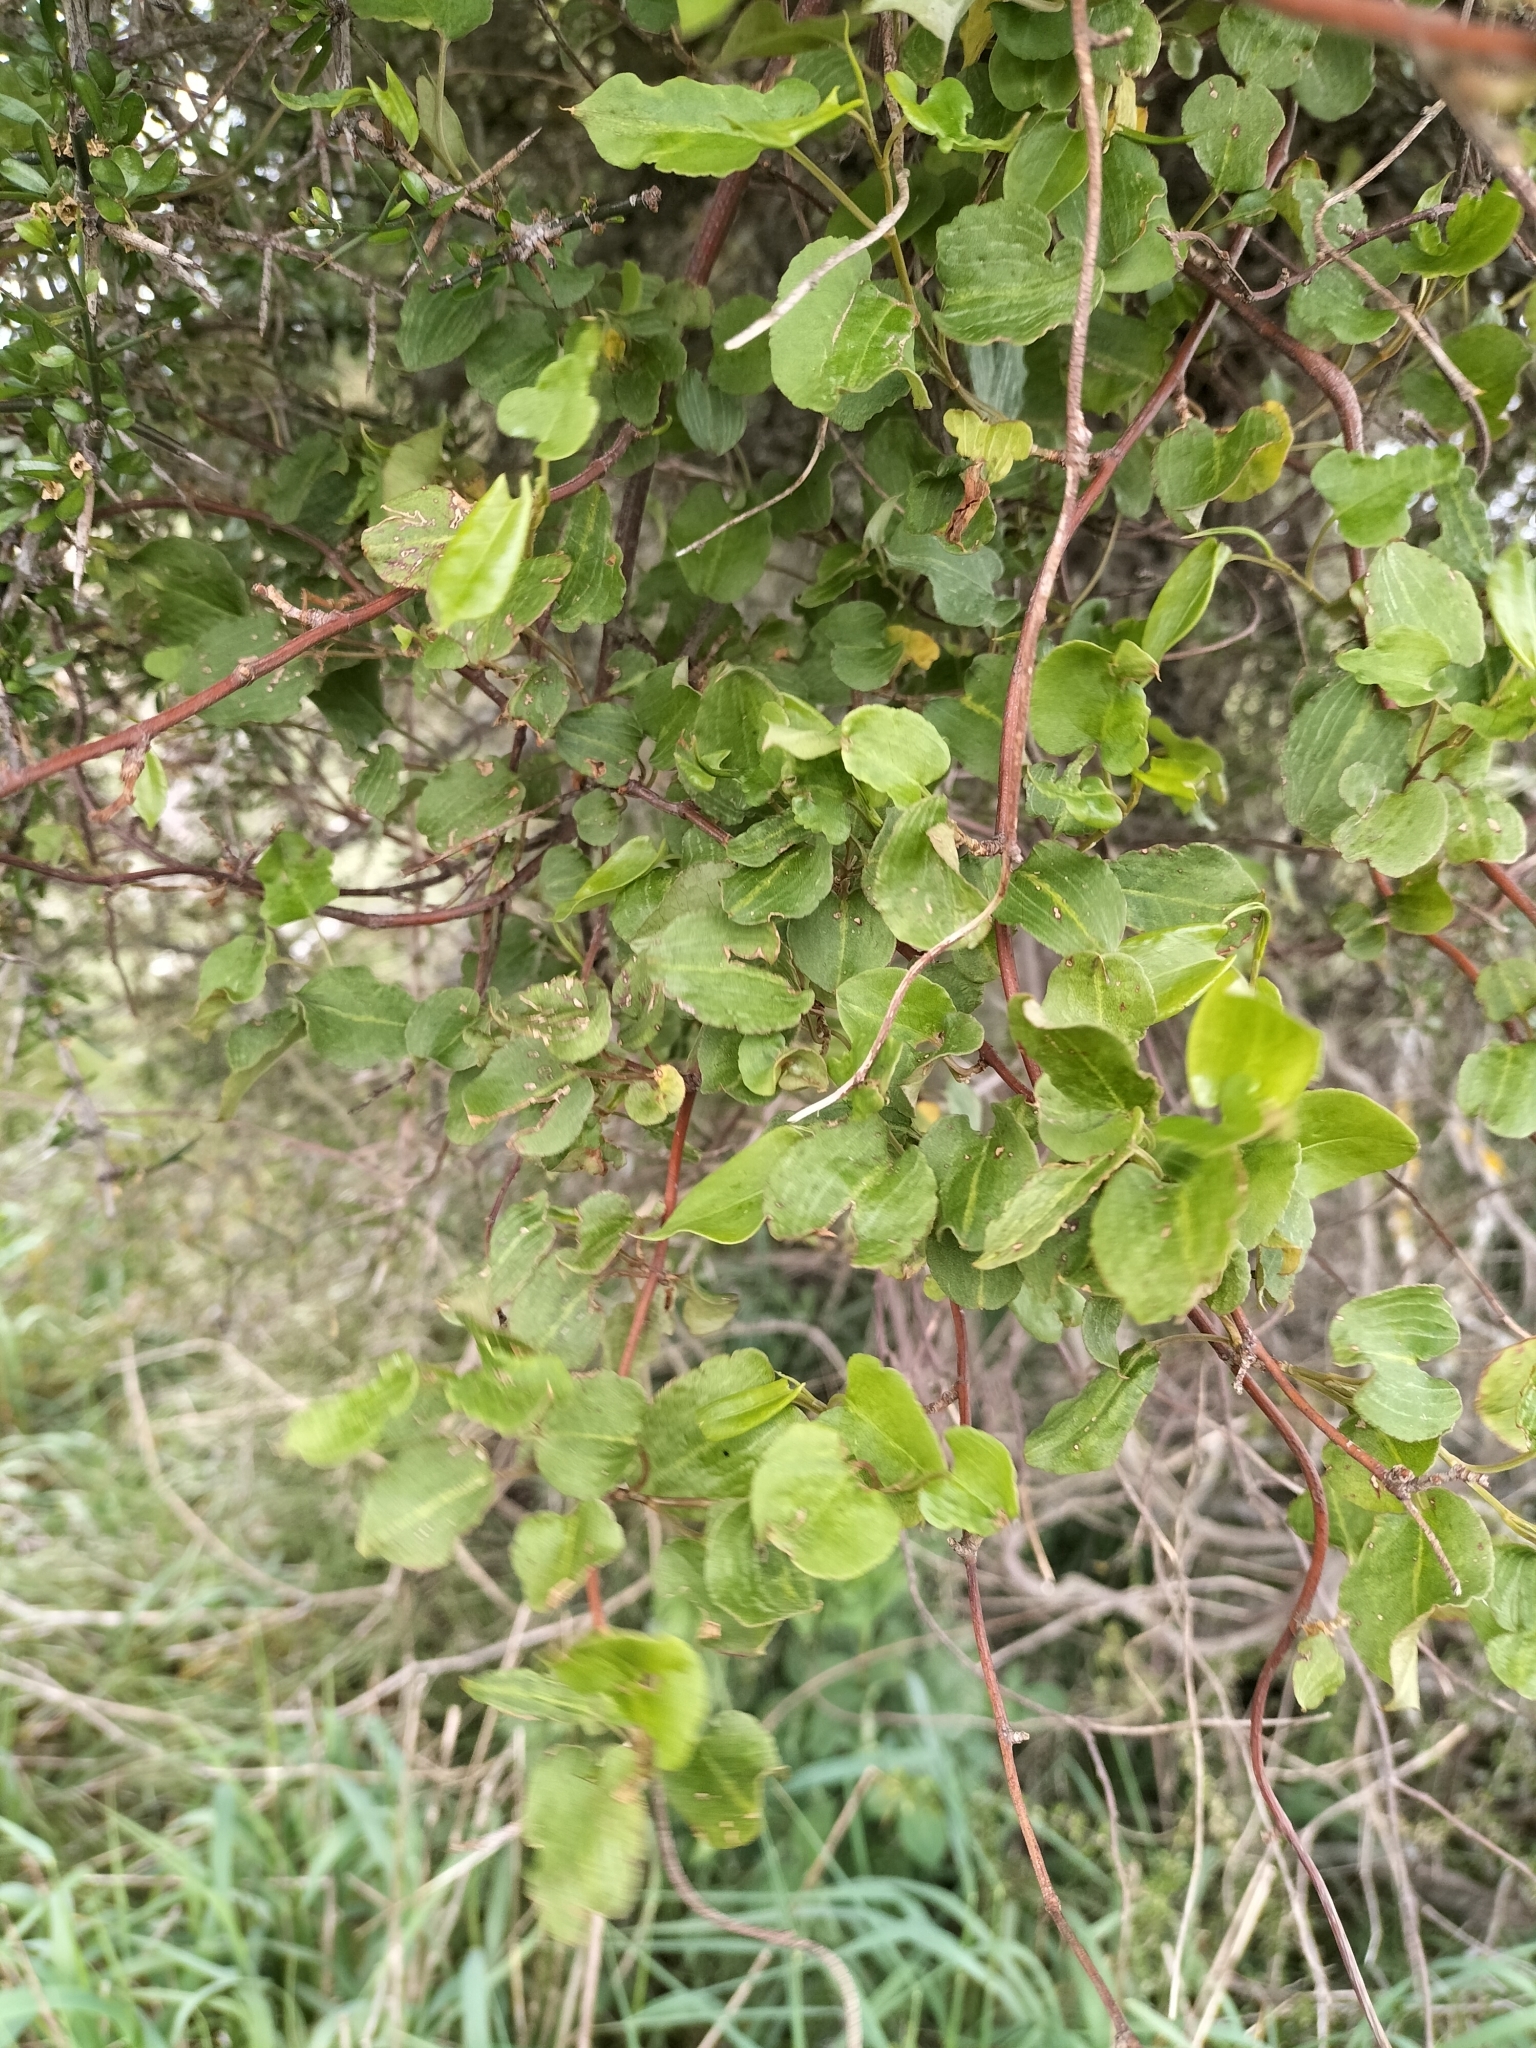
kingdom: Plantae
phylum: Tracheophyta
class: Magnoliopsida
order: Caryophyllales
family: Polygonaceae
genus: Muehlenbeckia
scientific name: Muehlenbeckia australis
